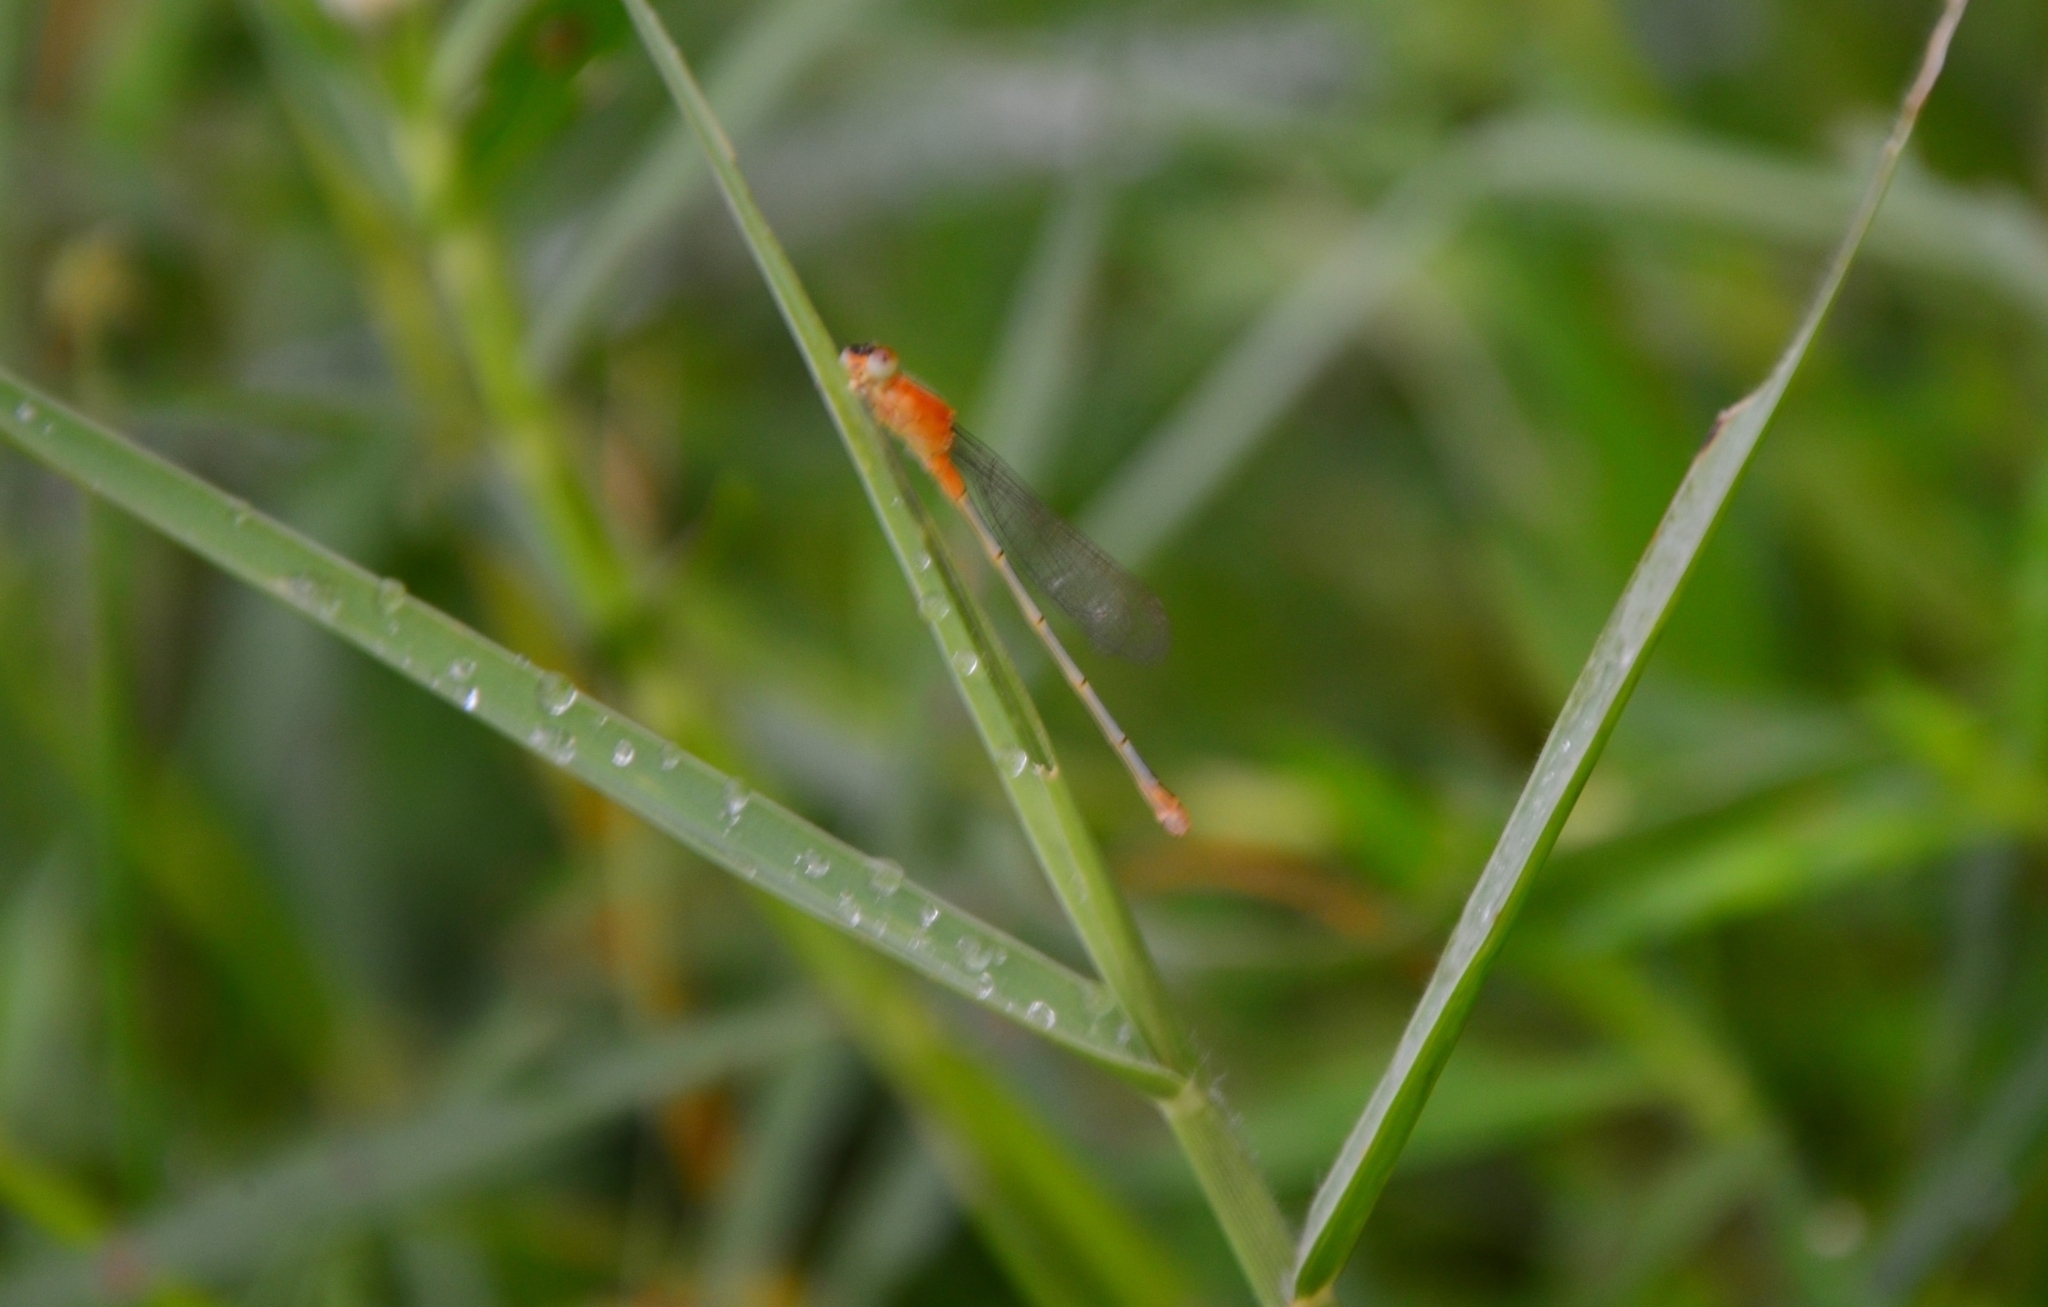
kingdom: Animalia
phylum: Arthropoda
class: Insecta
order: Odonata
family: Coenagrionidae
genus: Ischnura
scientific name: Ischnura senegalensis
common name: Tropical bluetail
